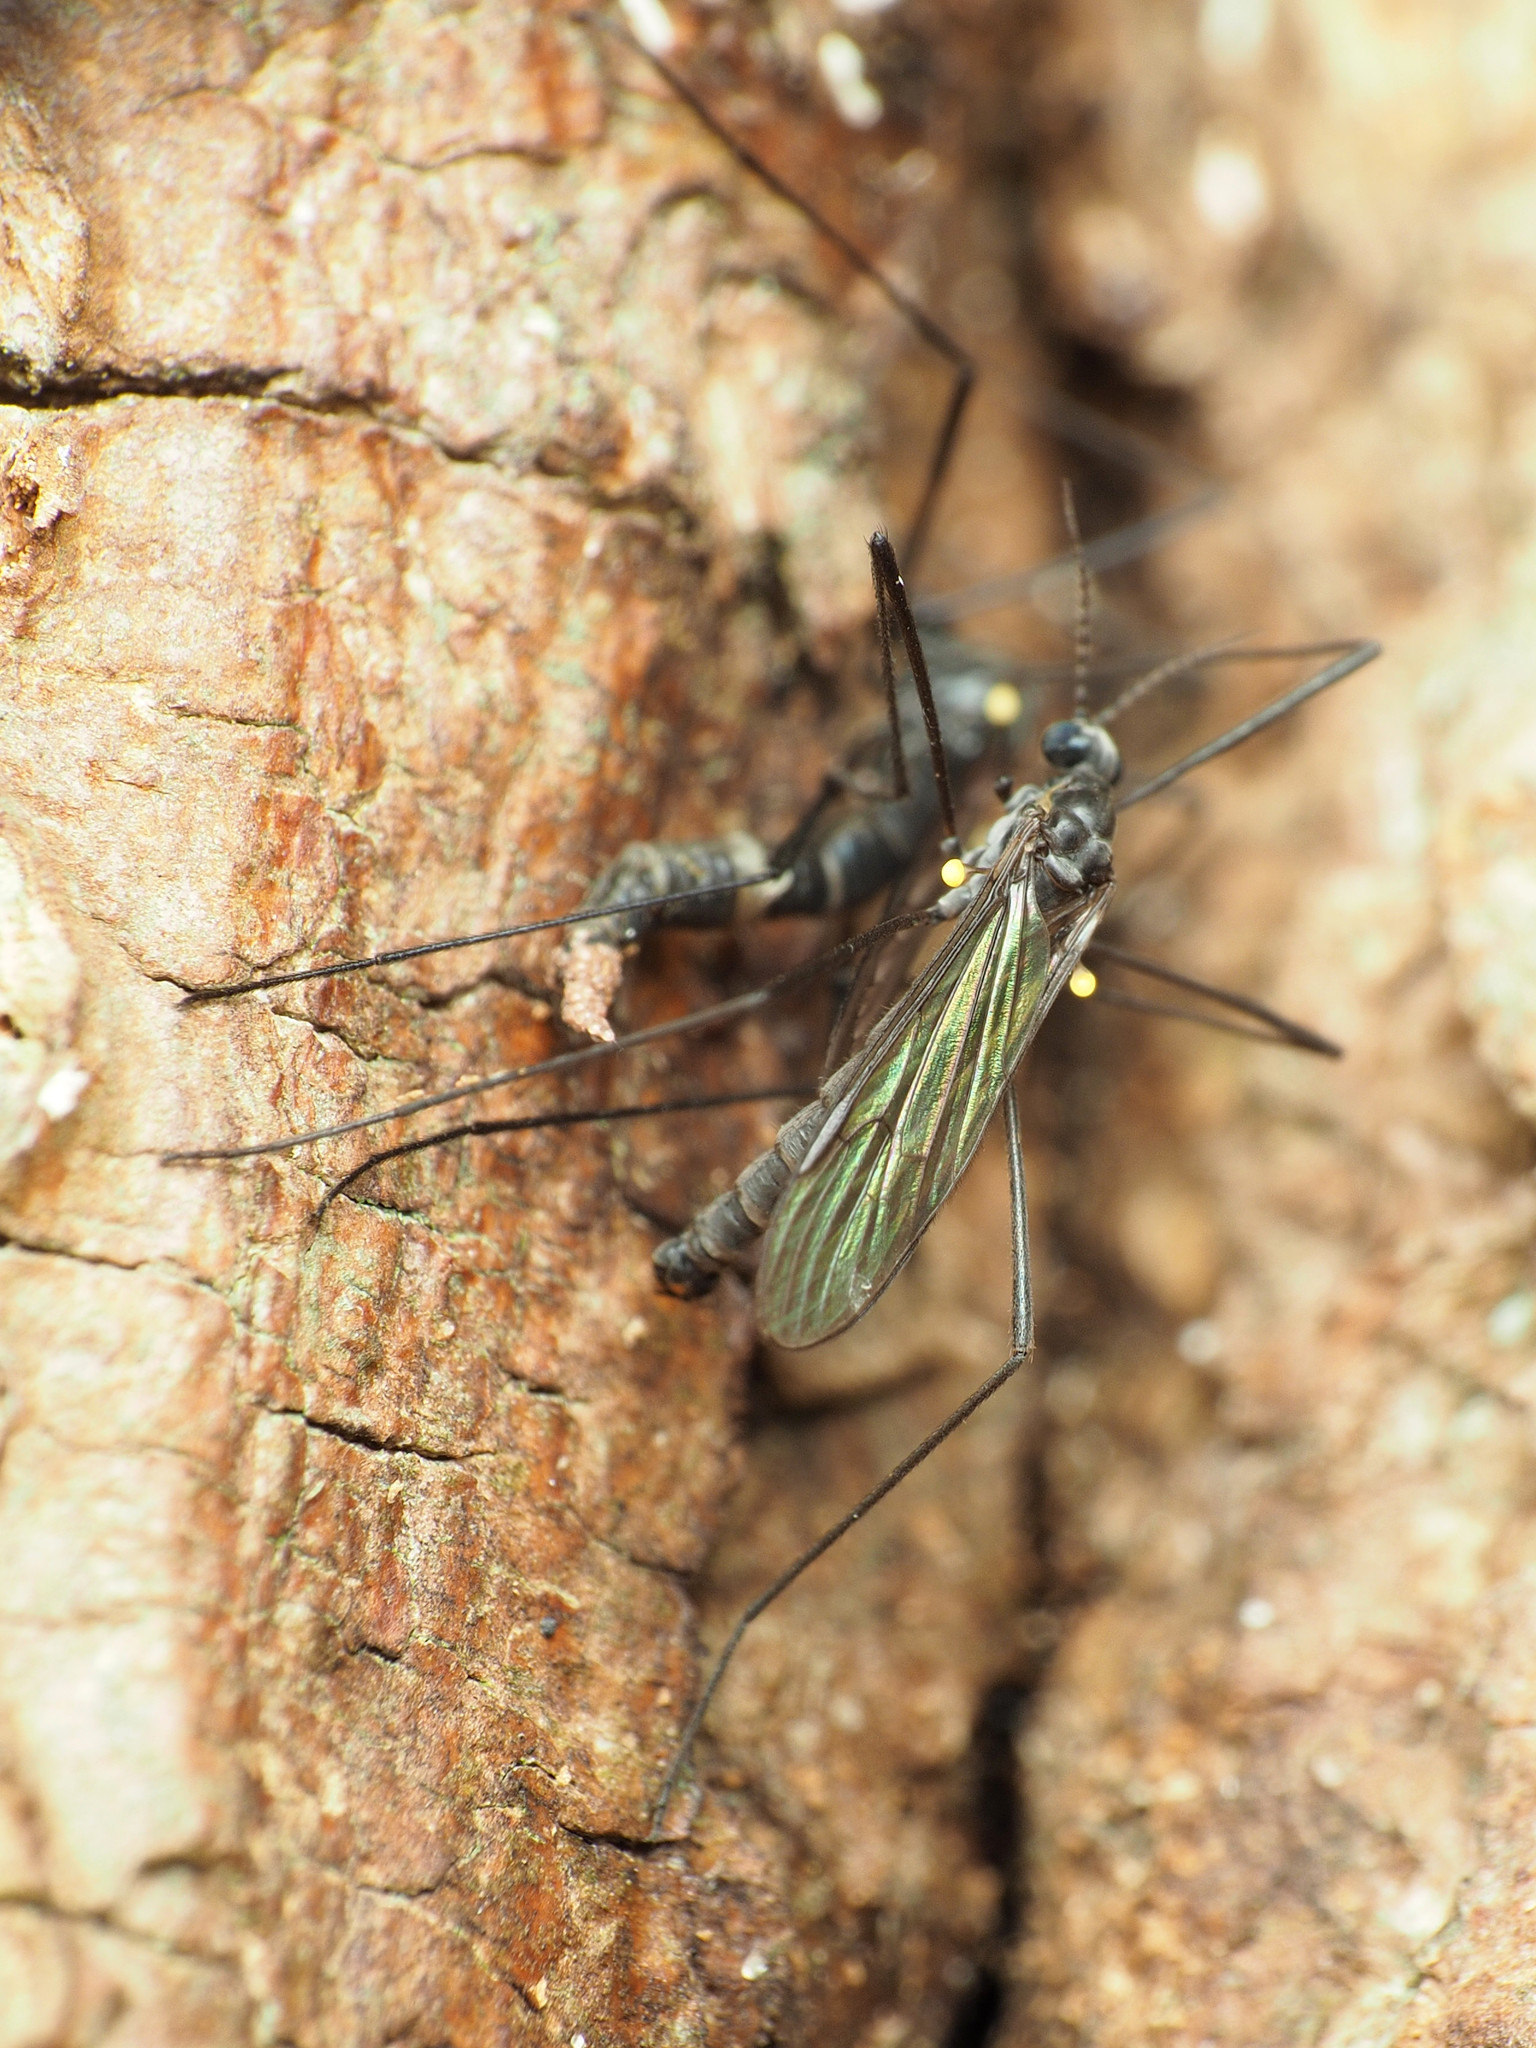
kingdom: Animalia
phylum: Arthropoda
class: Insecta
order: Diptera
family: Limoniidae
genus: Gnophomyia
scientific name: Gnophomyia tristissima
